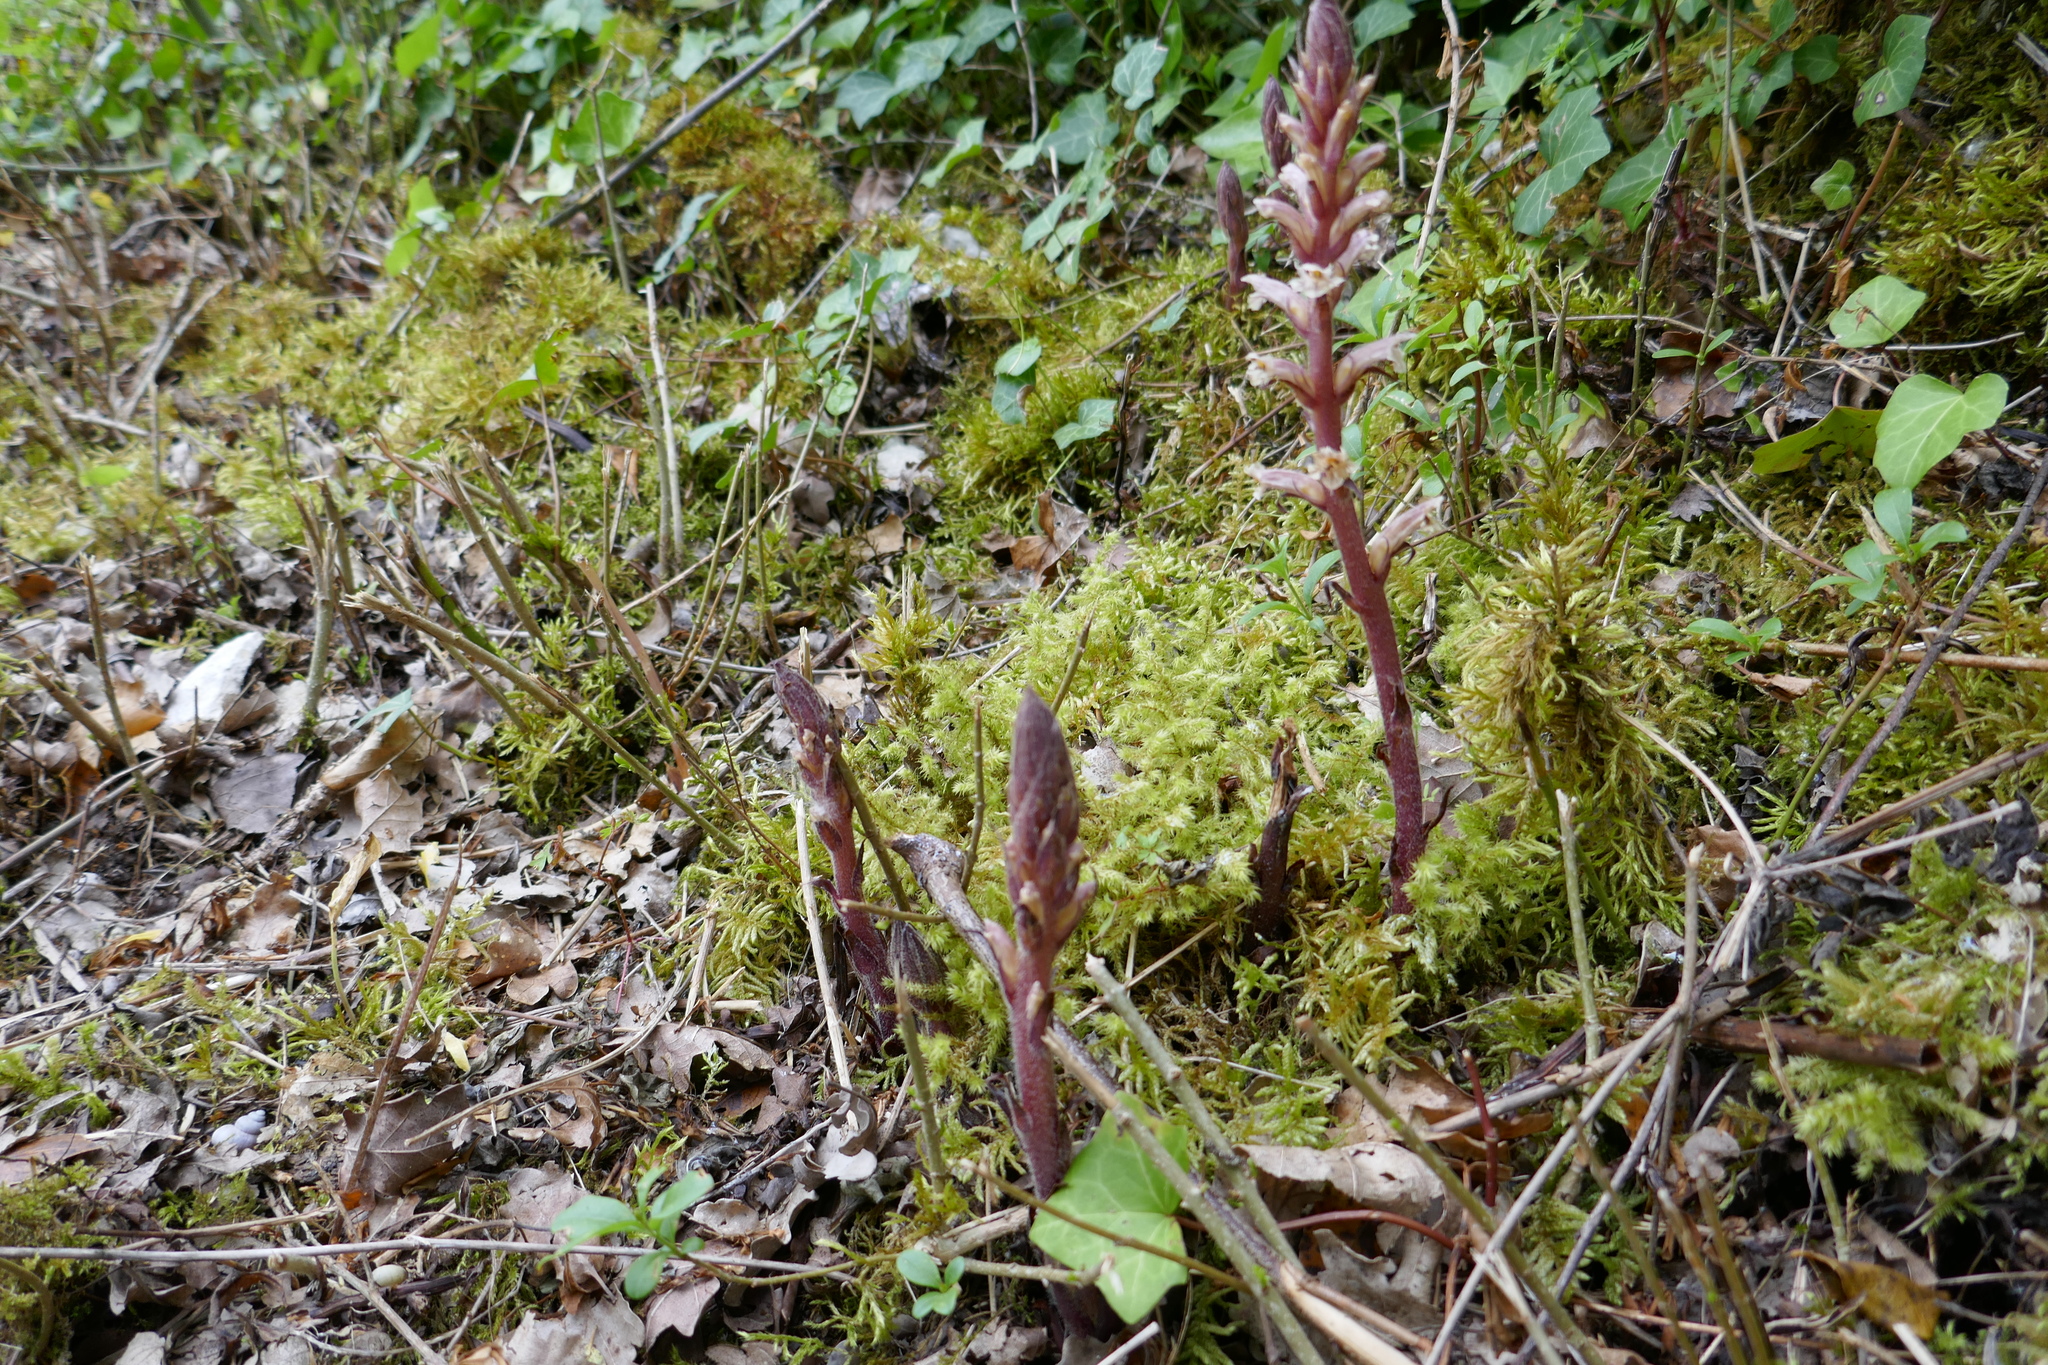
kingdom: Plantae
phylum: Tracheophyta
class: Magnoliopsida
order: Lamiales
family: Orobanchaceae
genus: Orobanche
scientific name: Orobanche hederae
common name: Ivy broomrape
